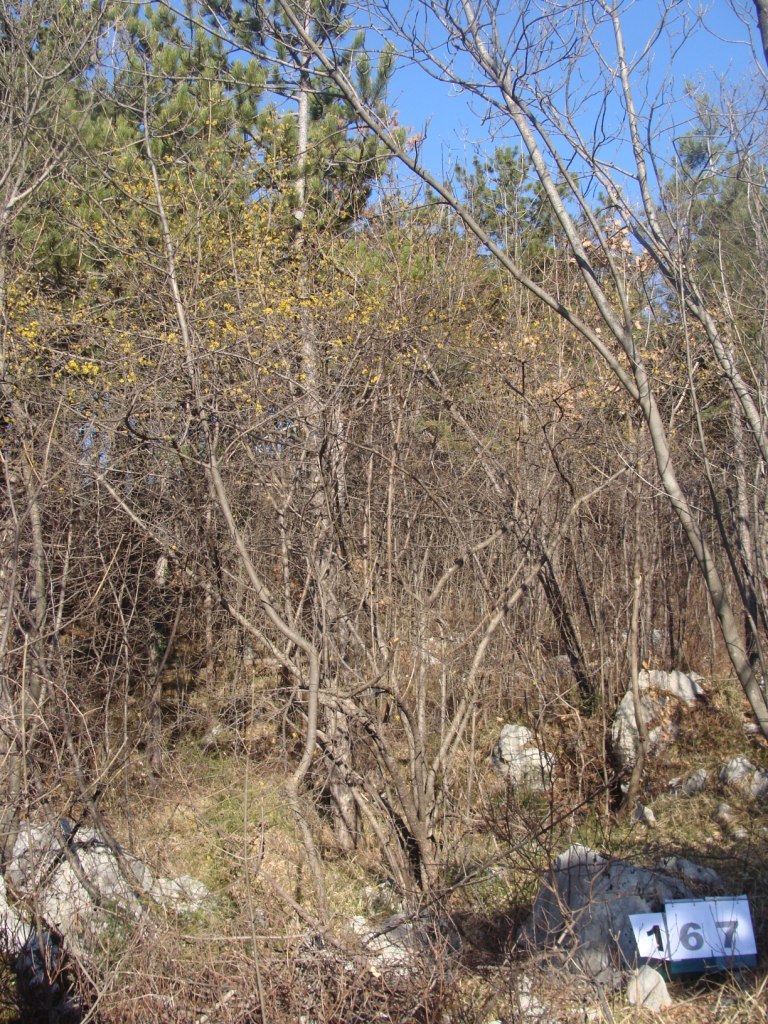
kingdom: Plantae
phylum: Tracheophyta
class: Magnoliopsida
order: Cornales
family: Cornaceae
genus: Cornus
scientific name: Cornus mas
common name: Cornelian-cherry
